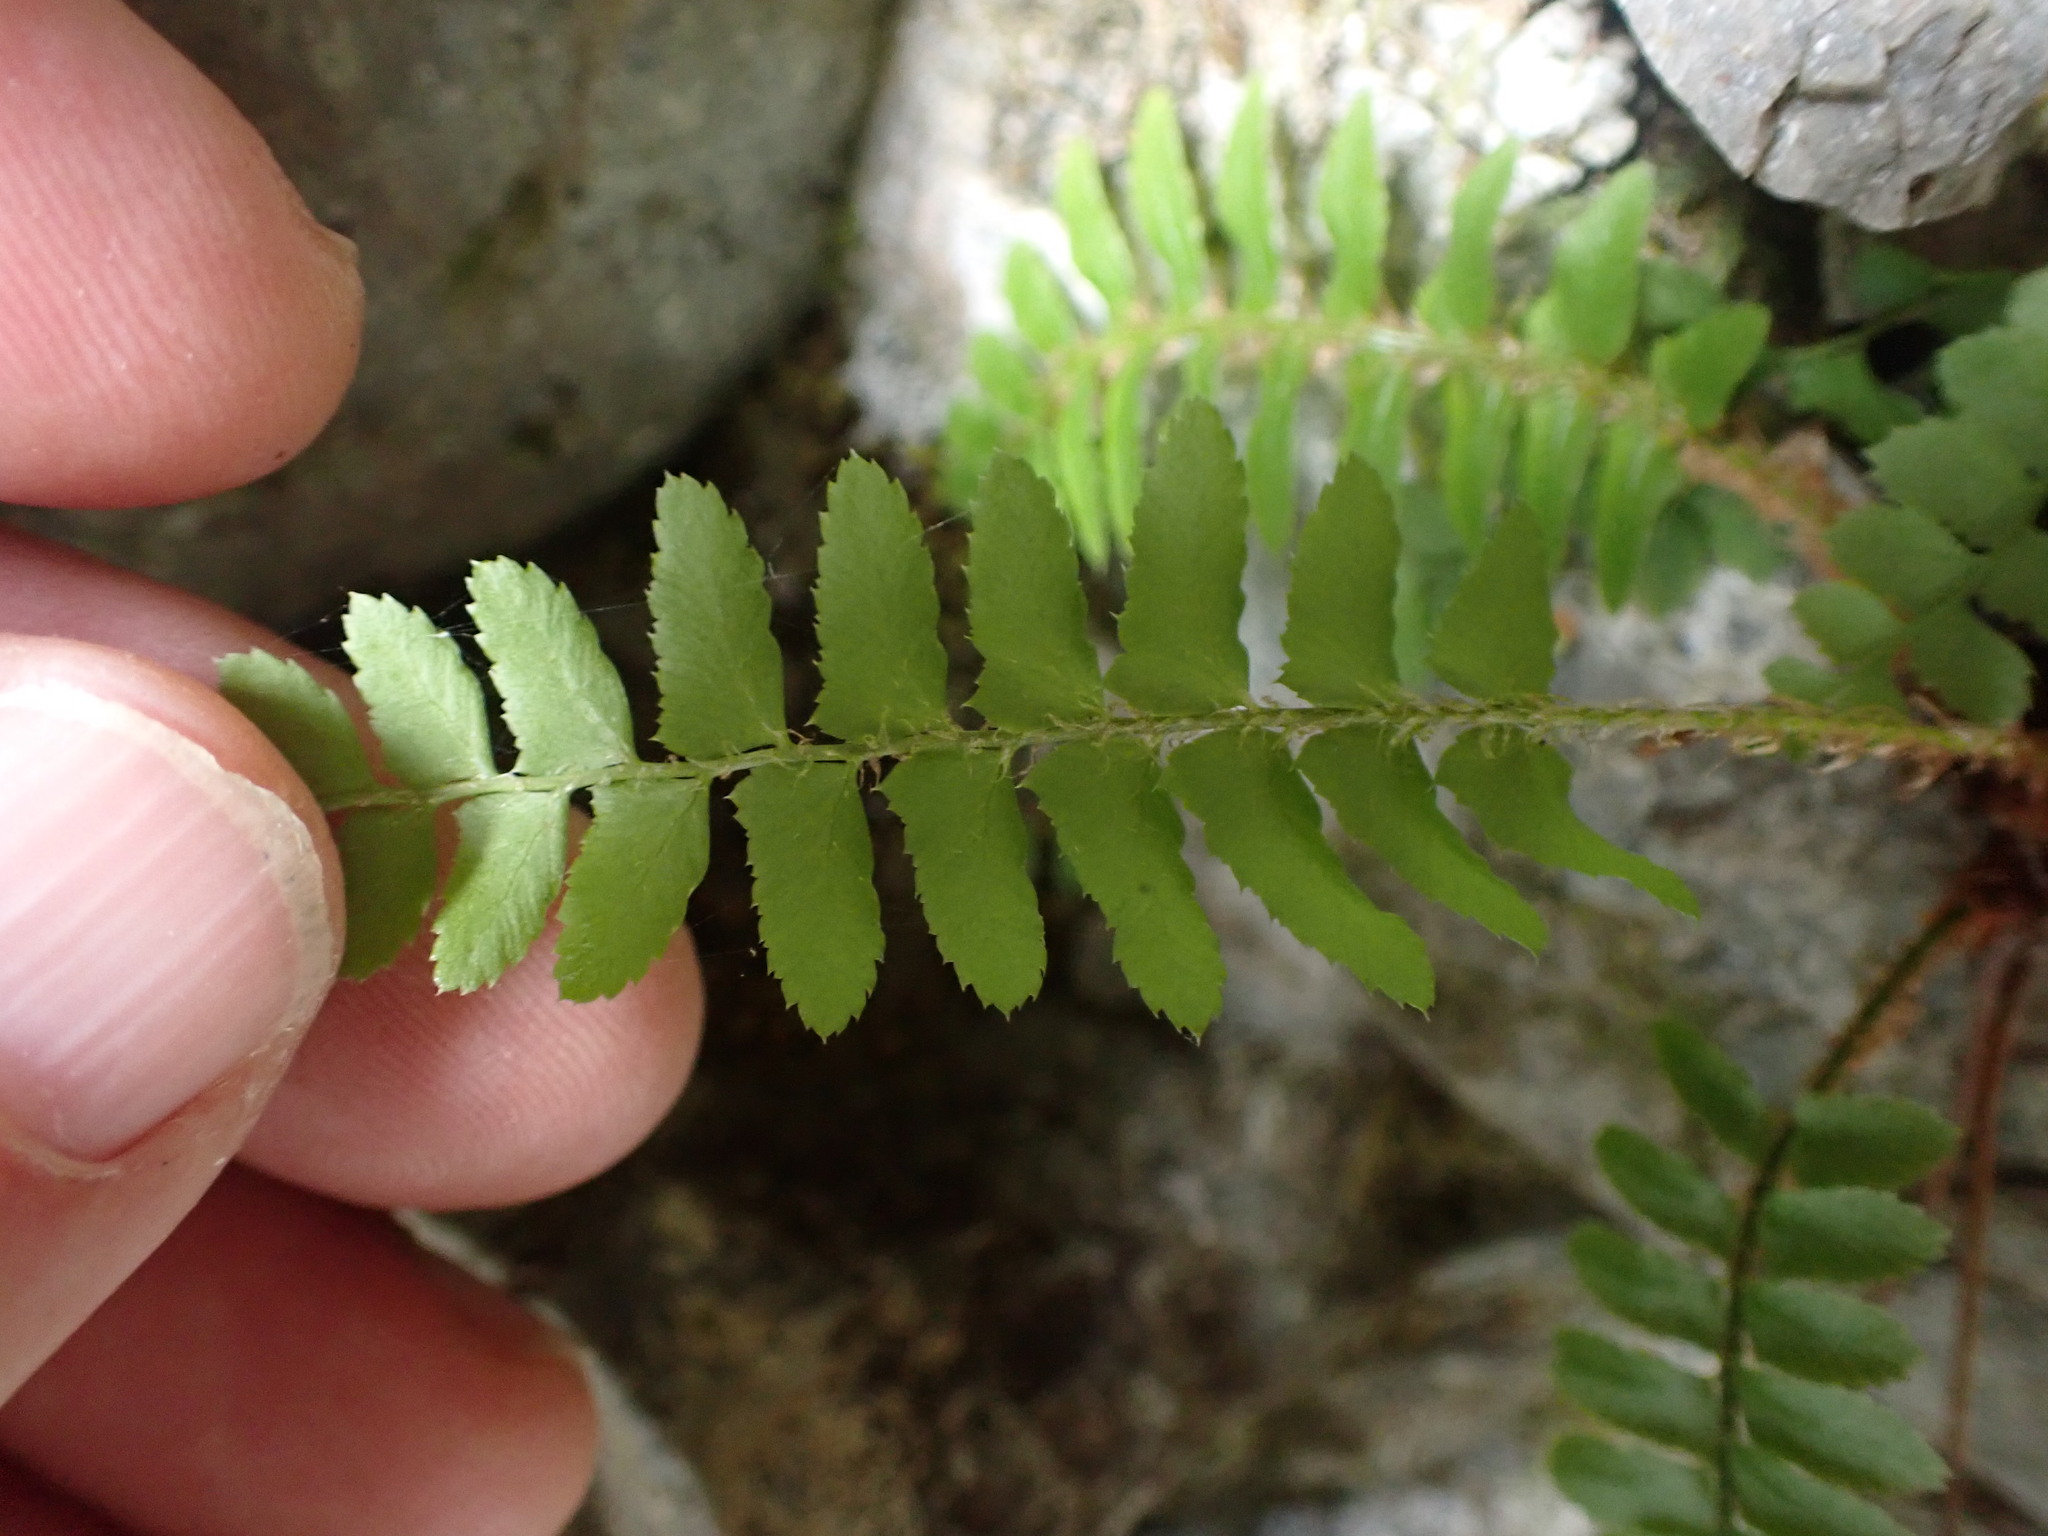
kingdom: Plantae
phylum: Tracheophyta
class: Polypodiopsida
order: Polypodiales
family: Dryopteridaceae
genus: Polystichum
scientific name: Polystichum munitum
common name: Western sword-fern
